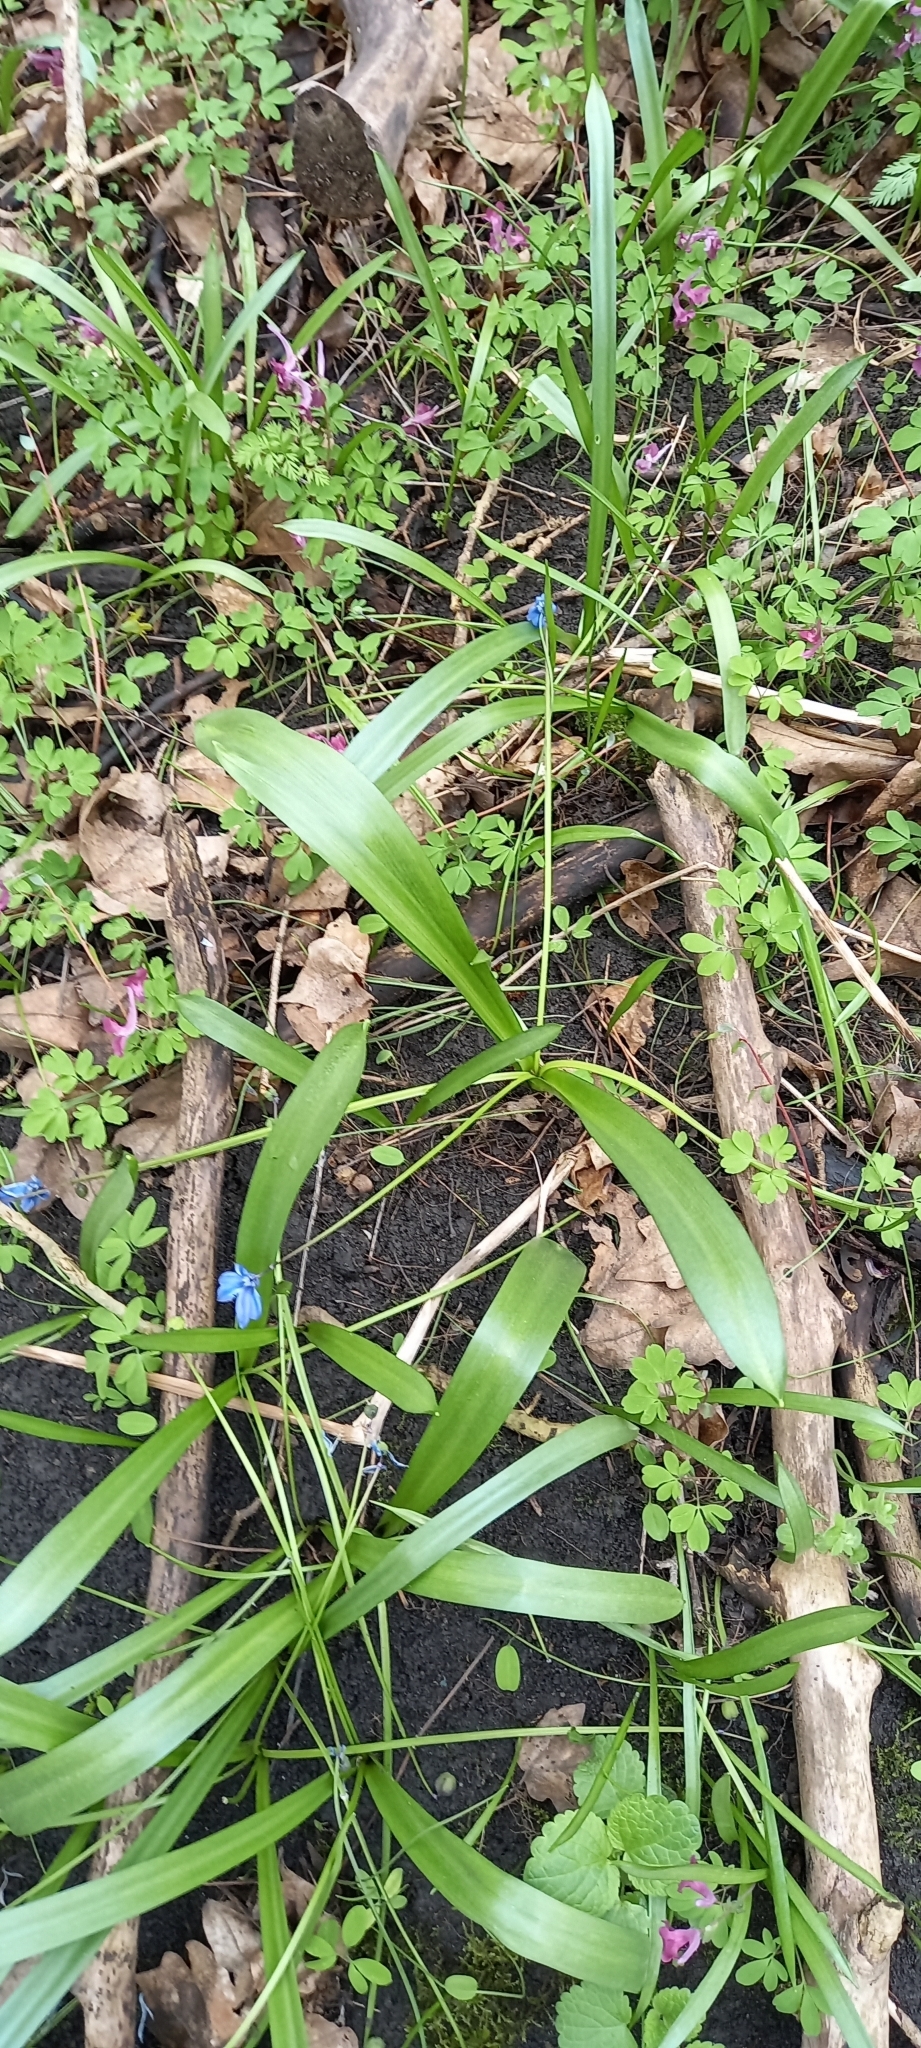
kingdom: Plantae
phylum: Tracheophyta
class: Liliopsida
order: Asparagales
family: Asparagaceae
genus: Scilla
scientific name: Scilla siberica
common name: Siberian squill
